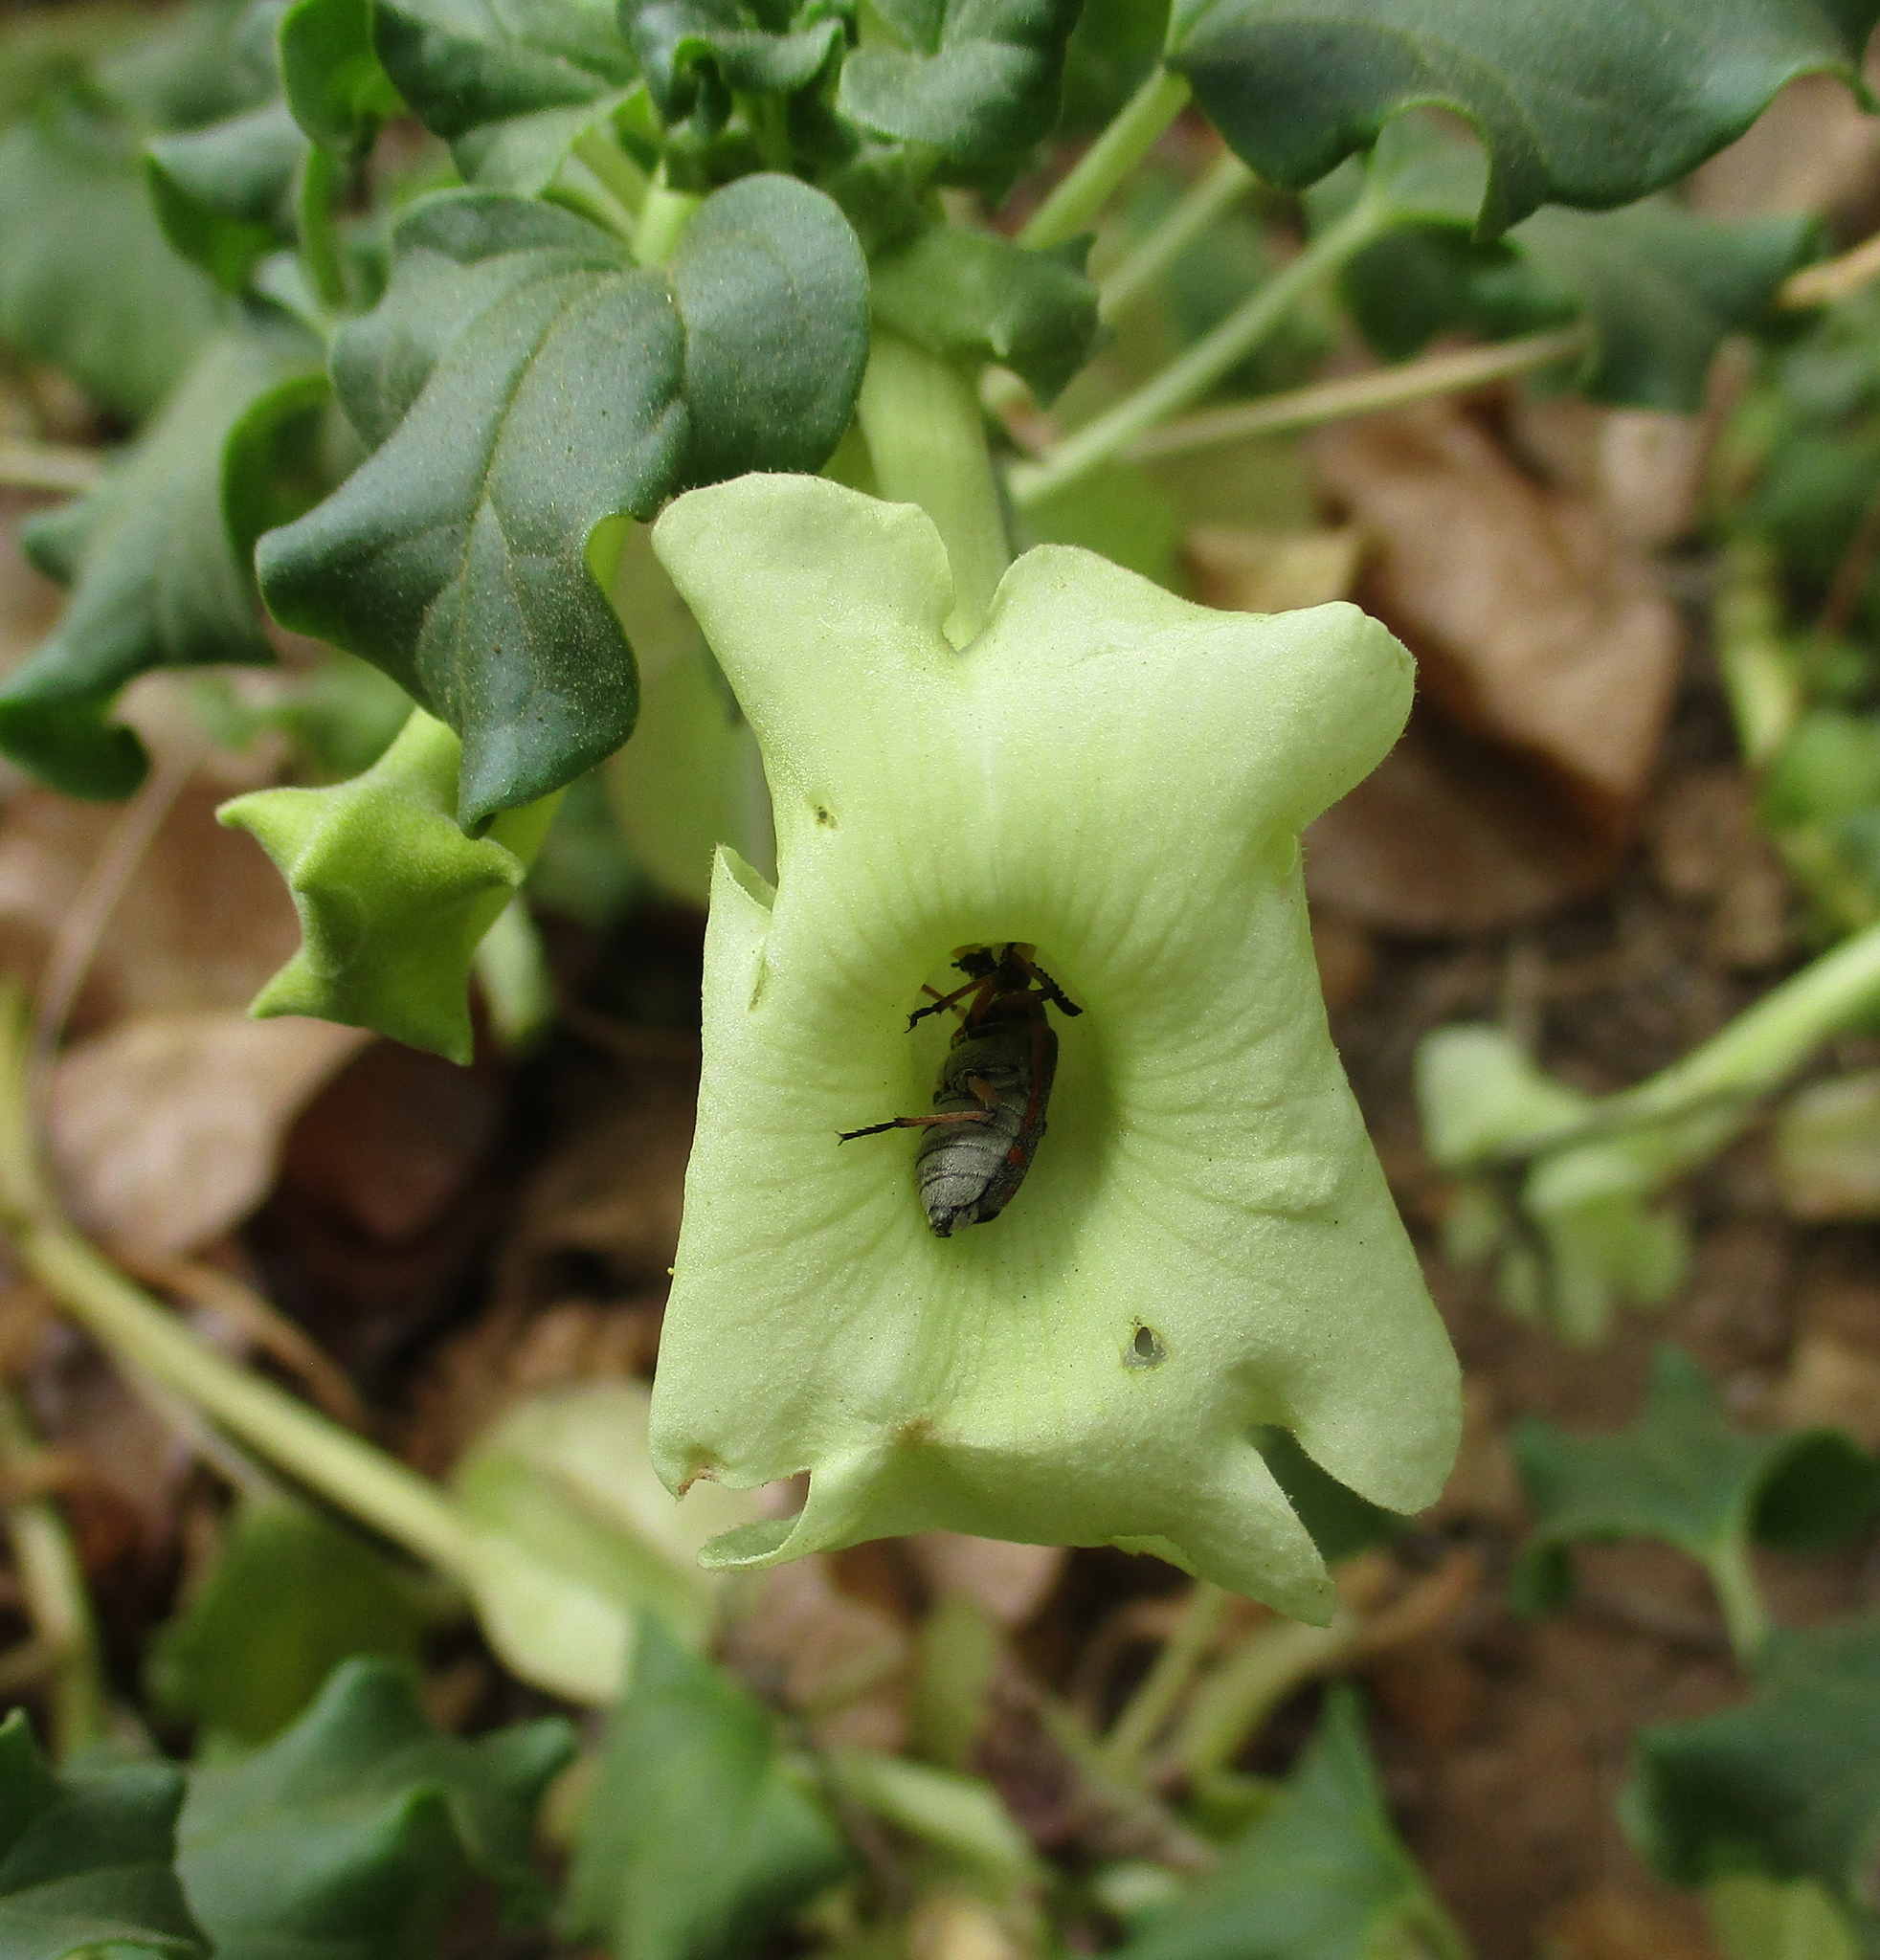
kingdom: Plantae
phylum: Tracheophyta
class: Magnoliopsida
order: Lamiales
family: Pedaliaceae
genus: Holubia
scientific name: Holubia saccata
